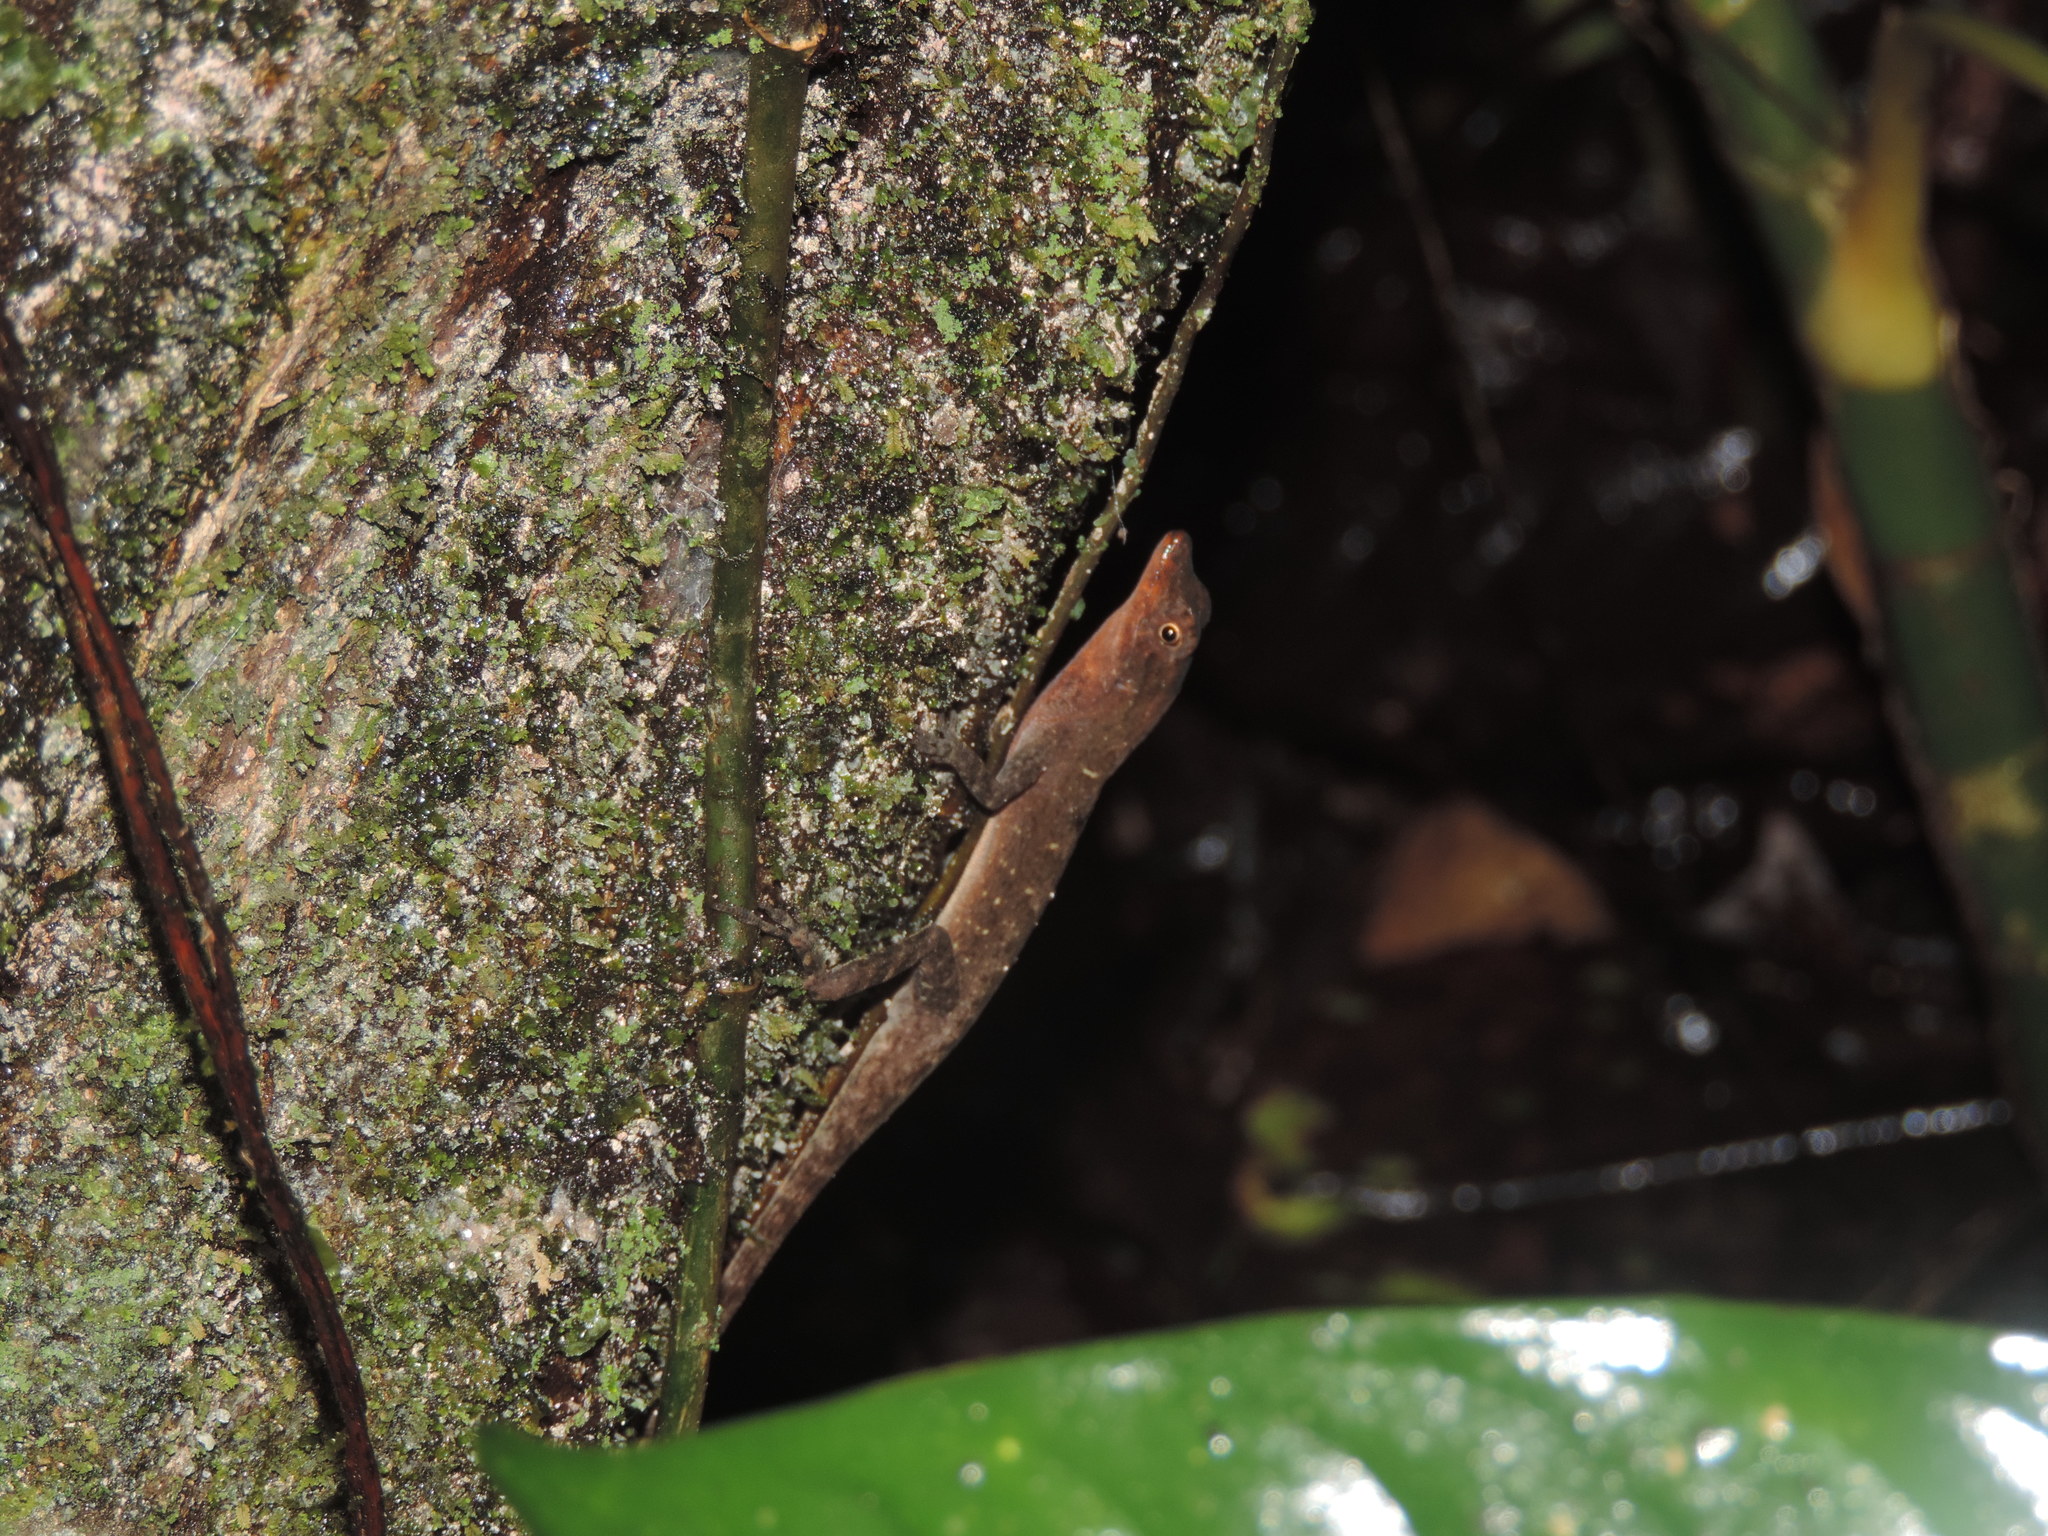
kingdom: Animalia
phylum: Chordata
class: Squamata
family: Dactyloidae
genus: Anolis
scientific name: Anolis tropidogaster
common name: Tropical anole
